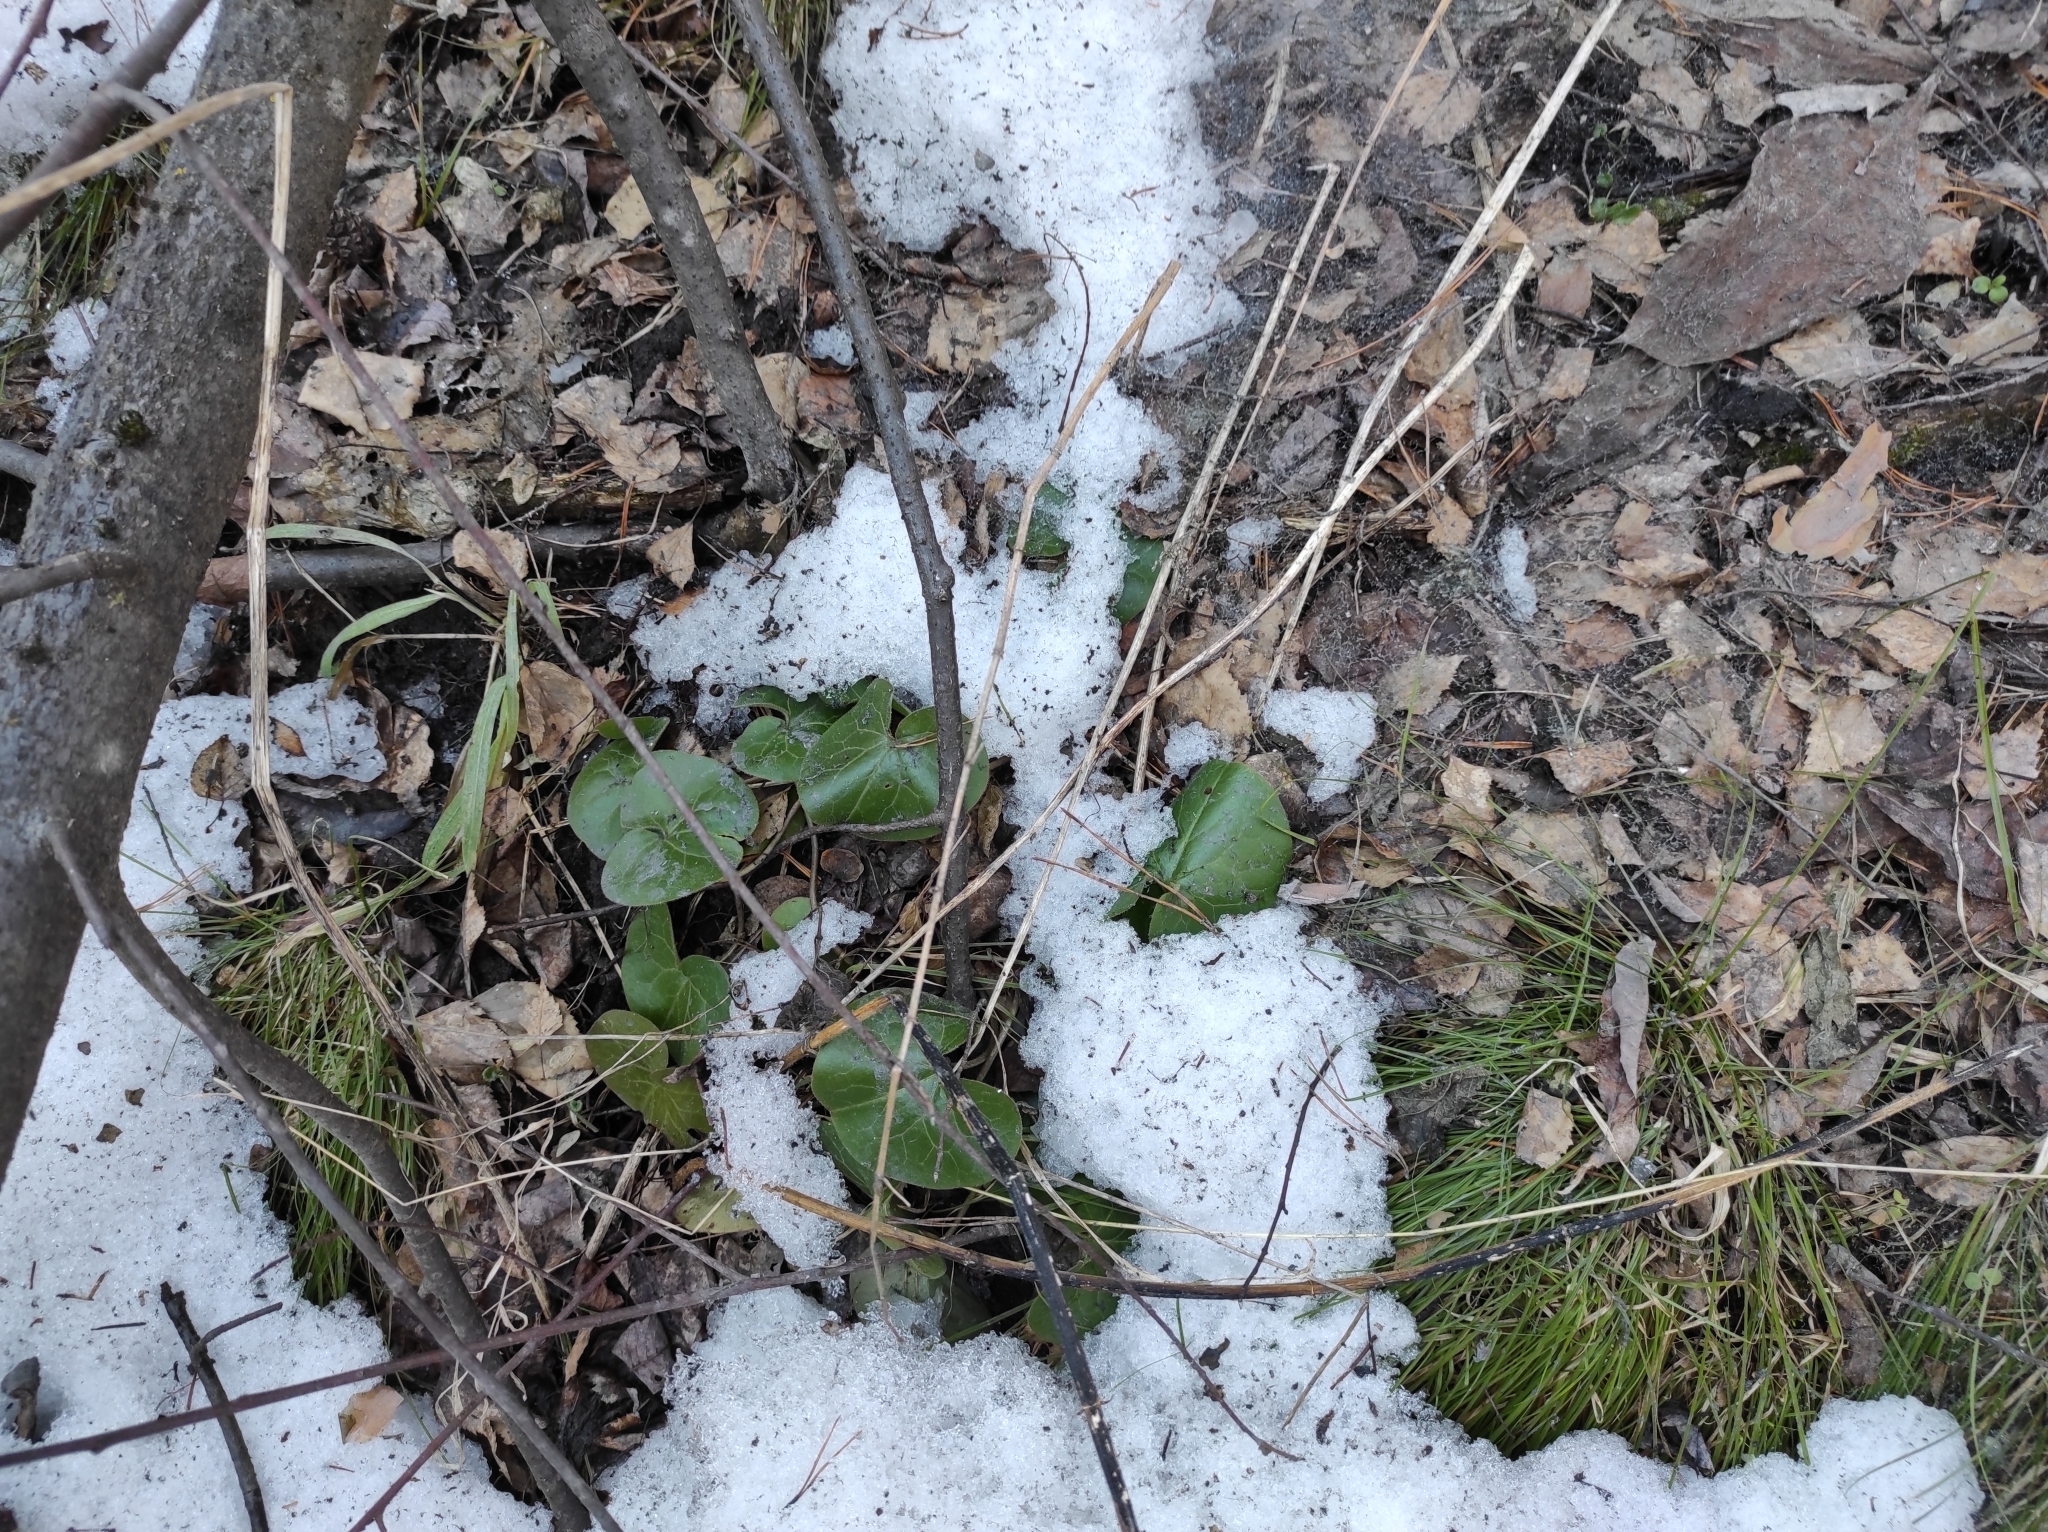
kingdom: Plantae
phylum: Tracheophyta
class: Magnoliopsida
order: Piperales
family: Aristolochiaceae
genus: Asarum
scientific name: Asarum europaeum
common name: Asarabacca
